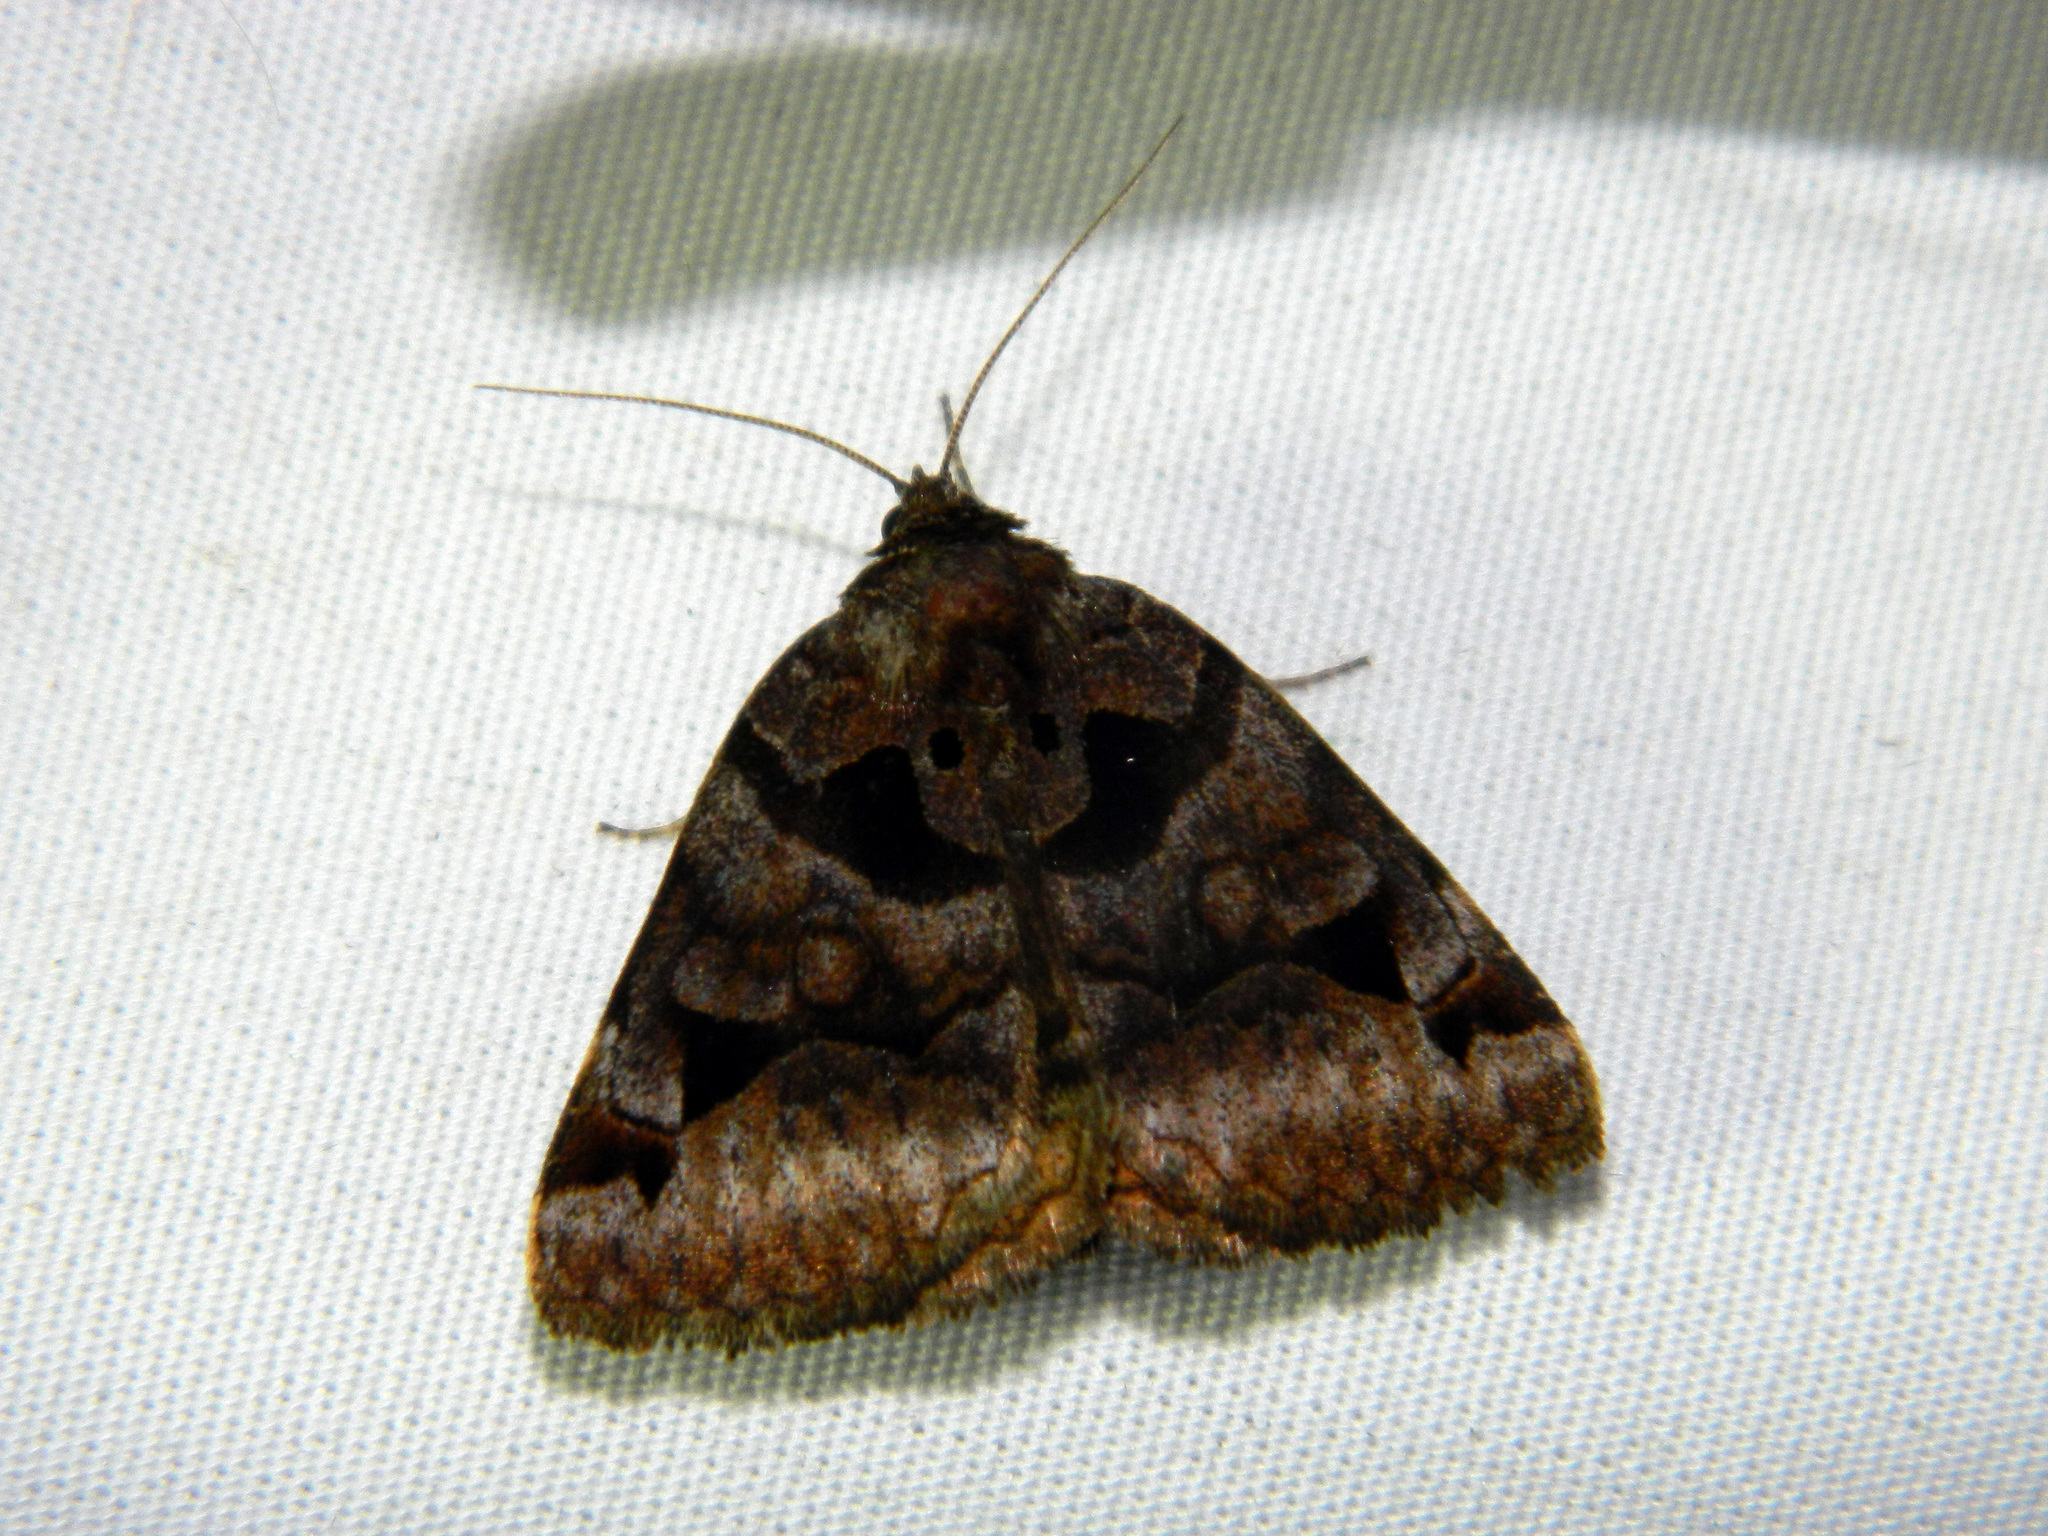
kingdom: Animalia
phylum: Arthropoda
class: Insecta
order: Lepidoptera
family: Erebidae
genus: Euclidia
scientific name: Euclidia cuspidea
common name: Toothed somberwing
